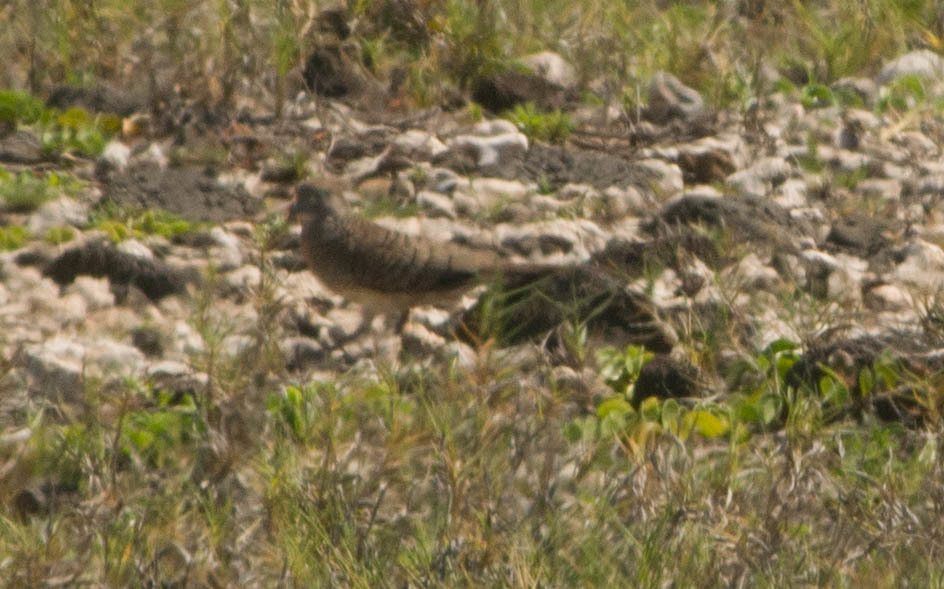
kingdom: Animalia
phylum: Chordata
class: Aves
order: Columbiformes
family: Columbidae
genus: Geopelia
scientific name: Geopelia striata
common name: Zebra dove
